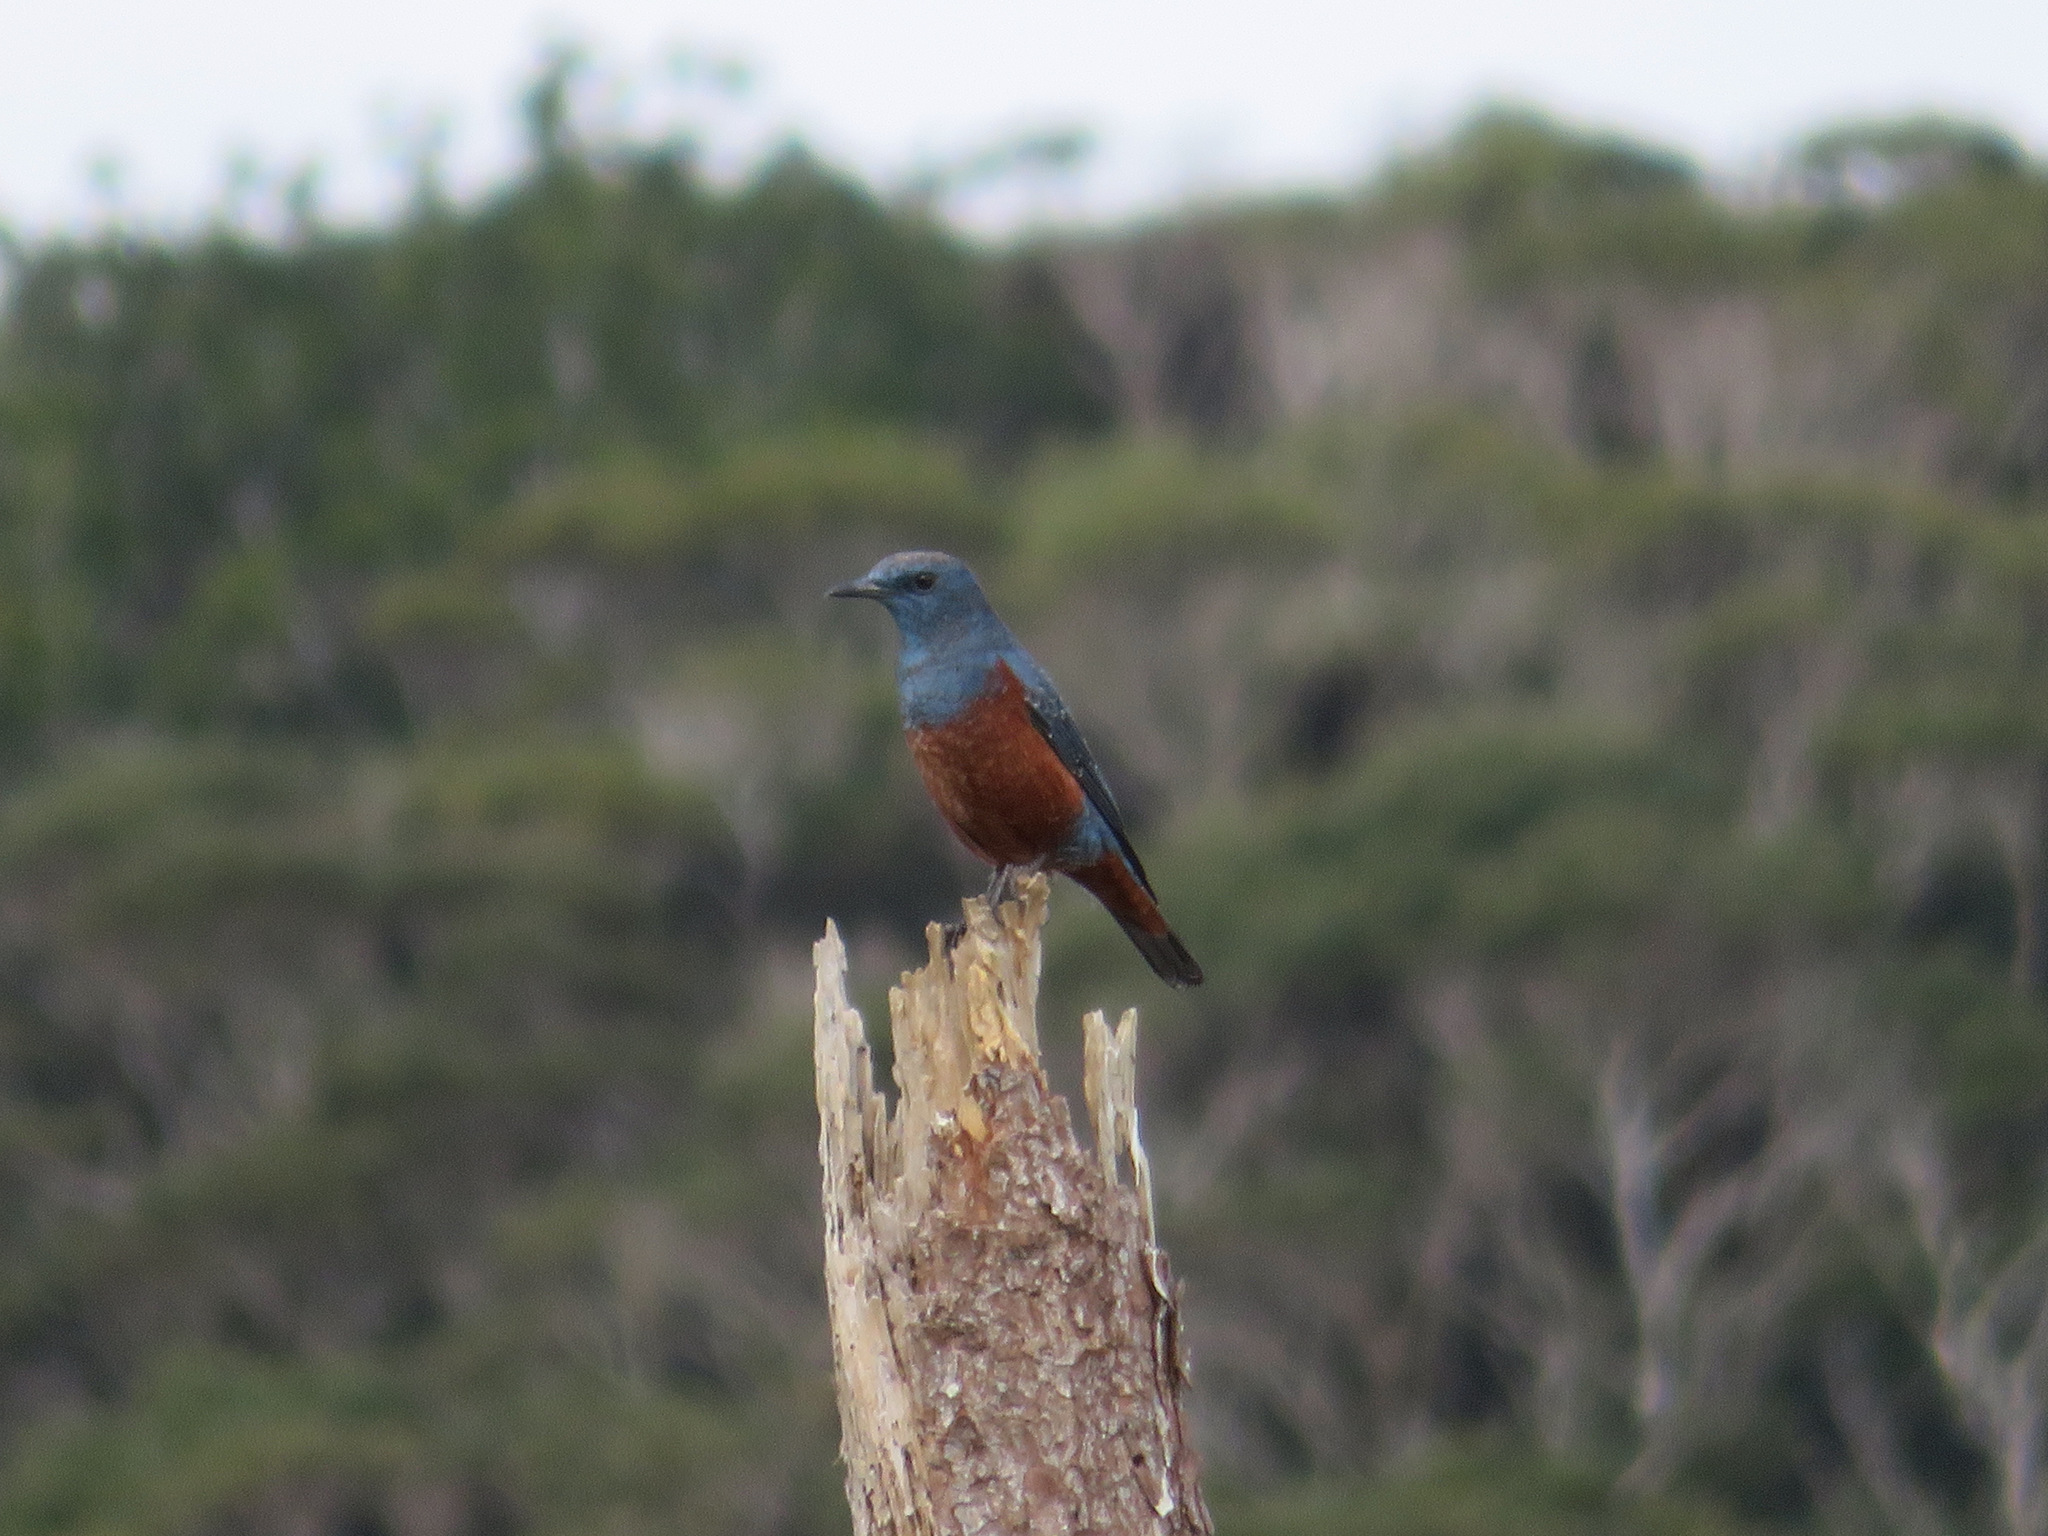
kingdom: Animalia
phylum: Chordata
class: Aves
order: Passeriformes
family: Muscicapidae
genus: Monticola
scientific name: Monticola solitarius
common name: Blue rock thrush
